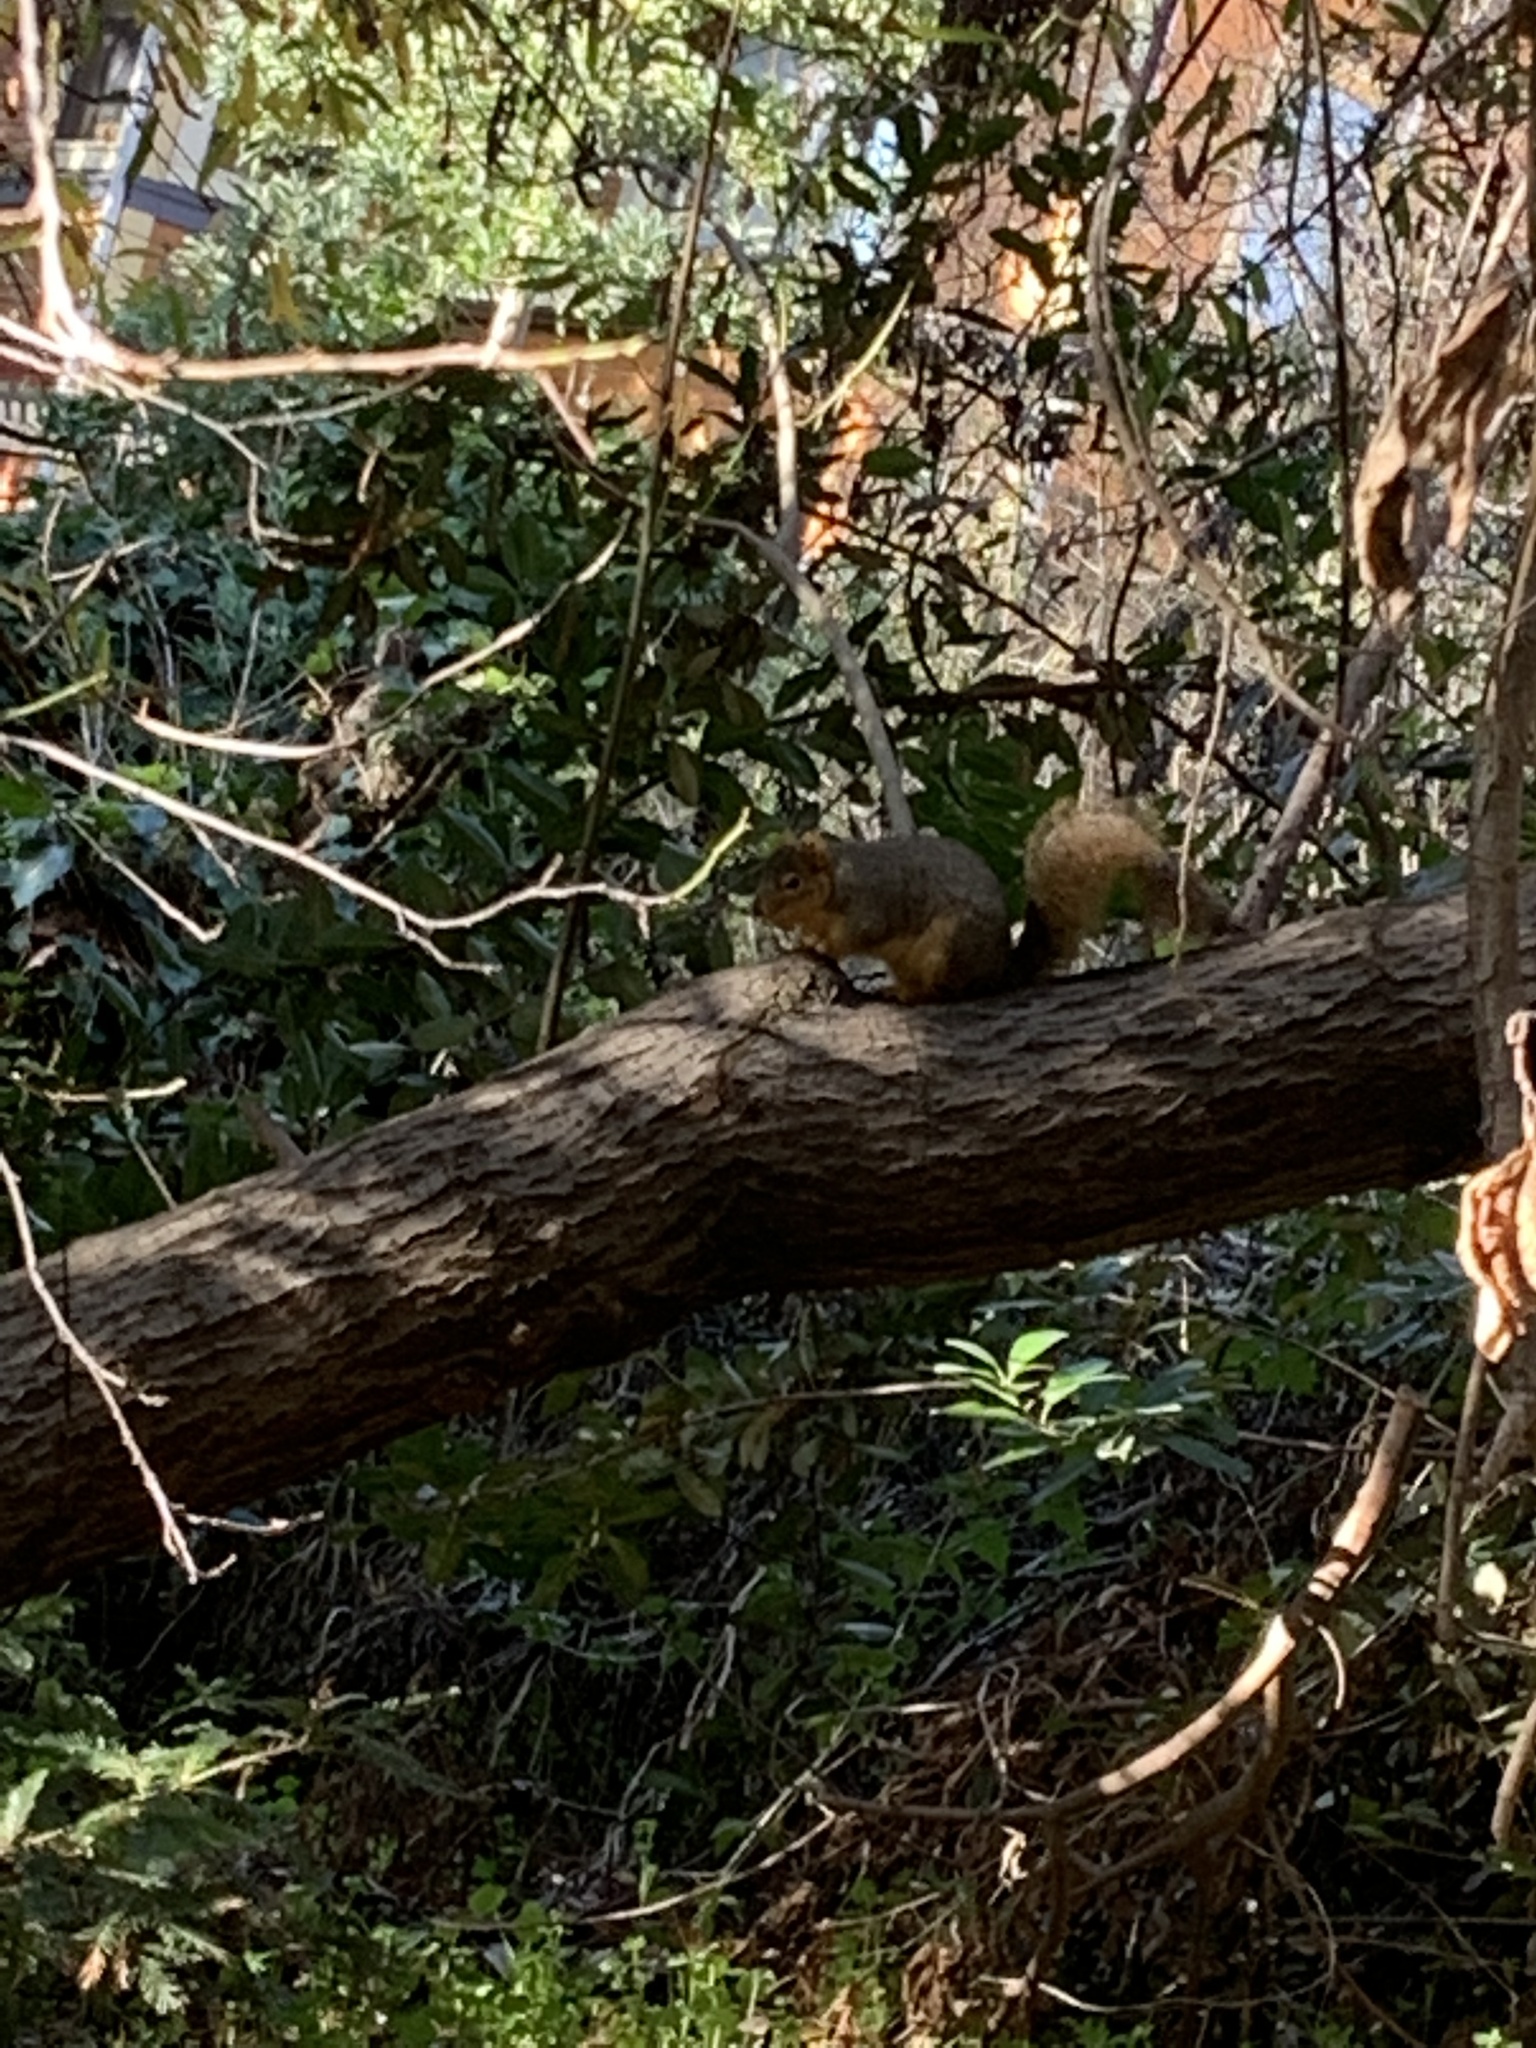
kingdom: Animalia
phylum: Chordata
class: Mammalia
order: Rodentia
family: Sciuridae
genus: Sciurus
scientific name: Sciurus niger
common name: Fox squirrel
